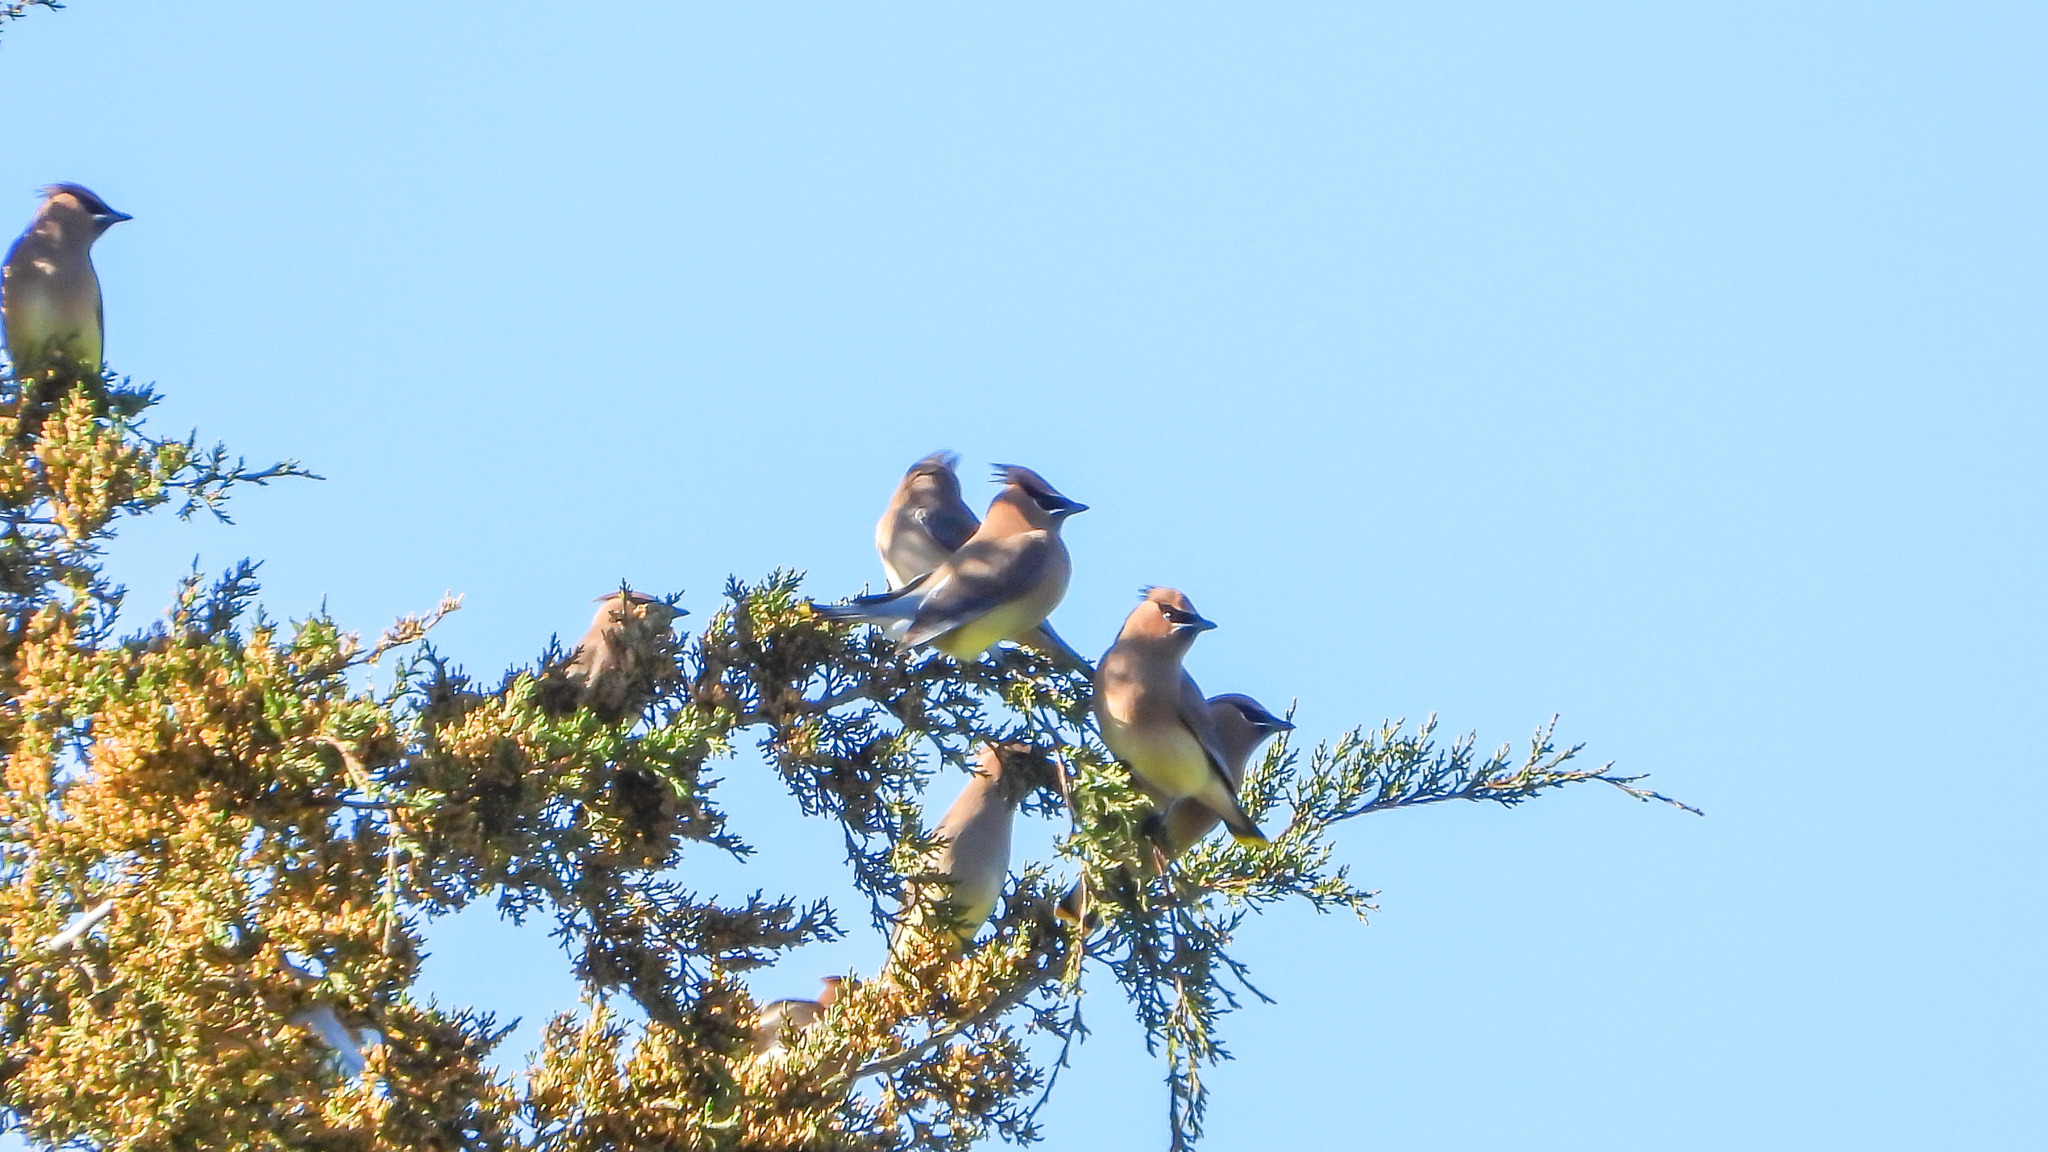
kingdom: Animalia
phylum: Chordata
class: Aves
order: Passeriformes
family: Bombycillidae
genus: Bombycilla
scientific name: Bombycilla cedrorum
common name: Cedar waxwing
